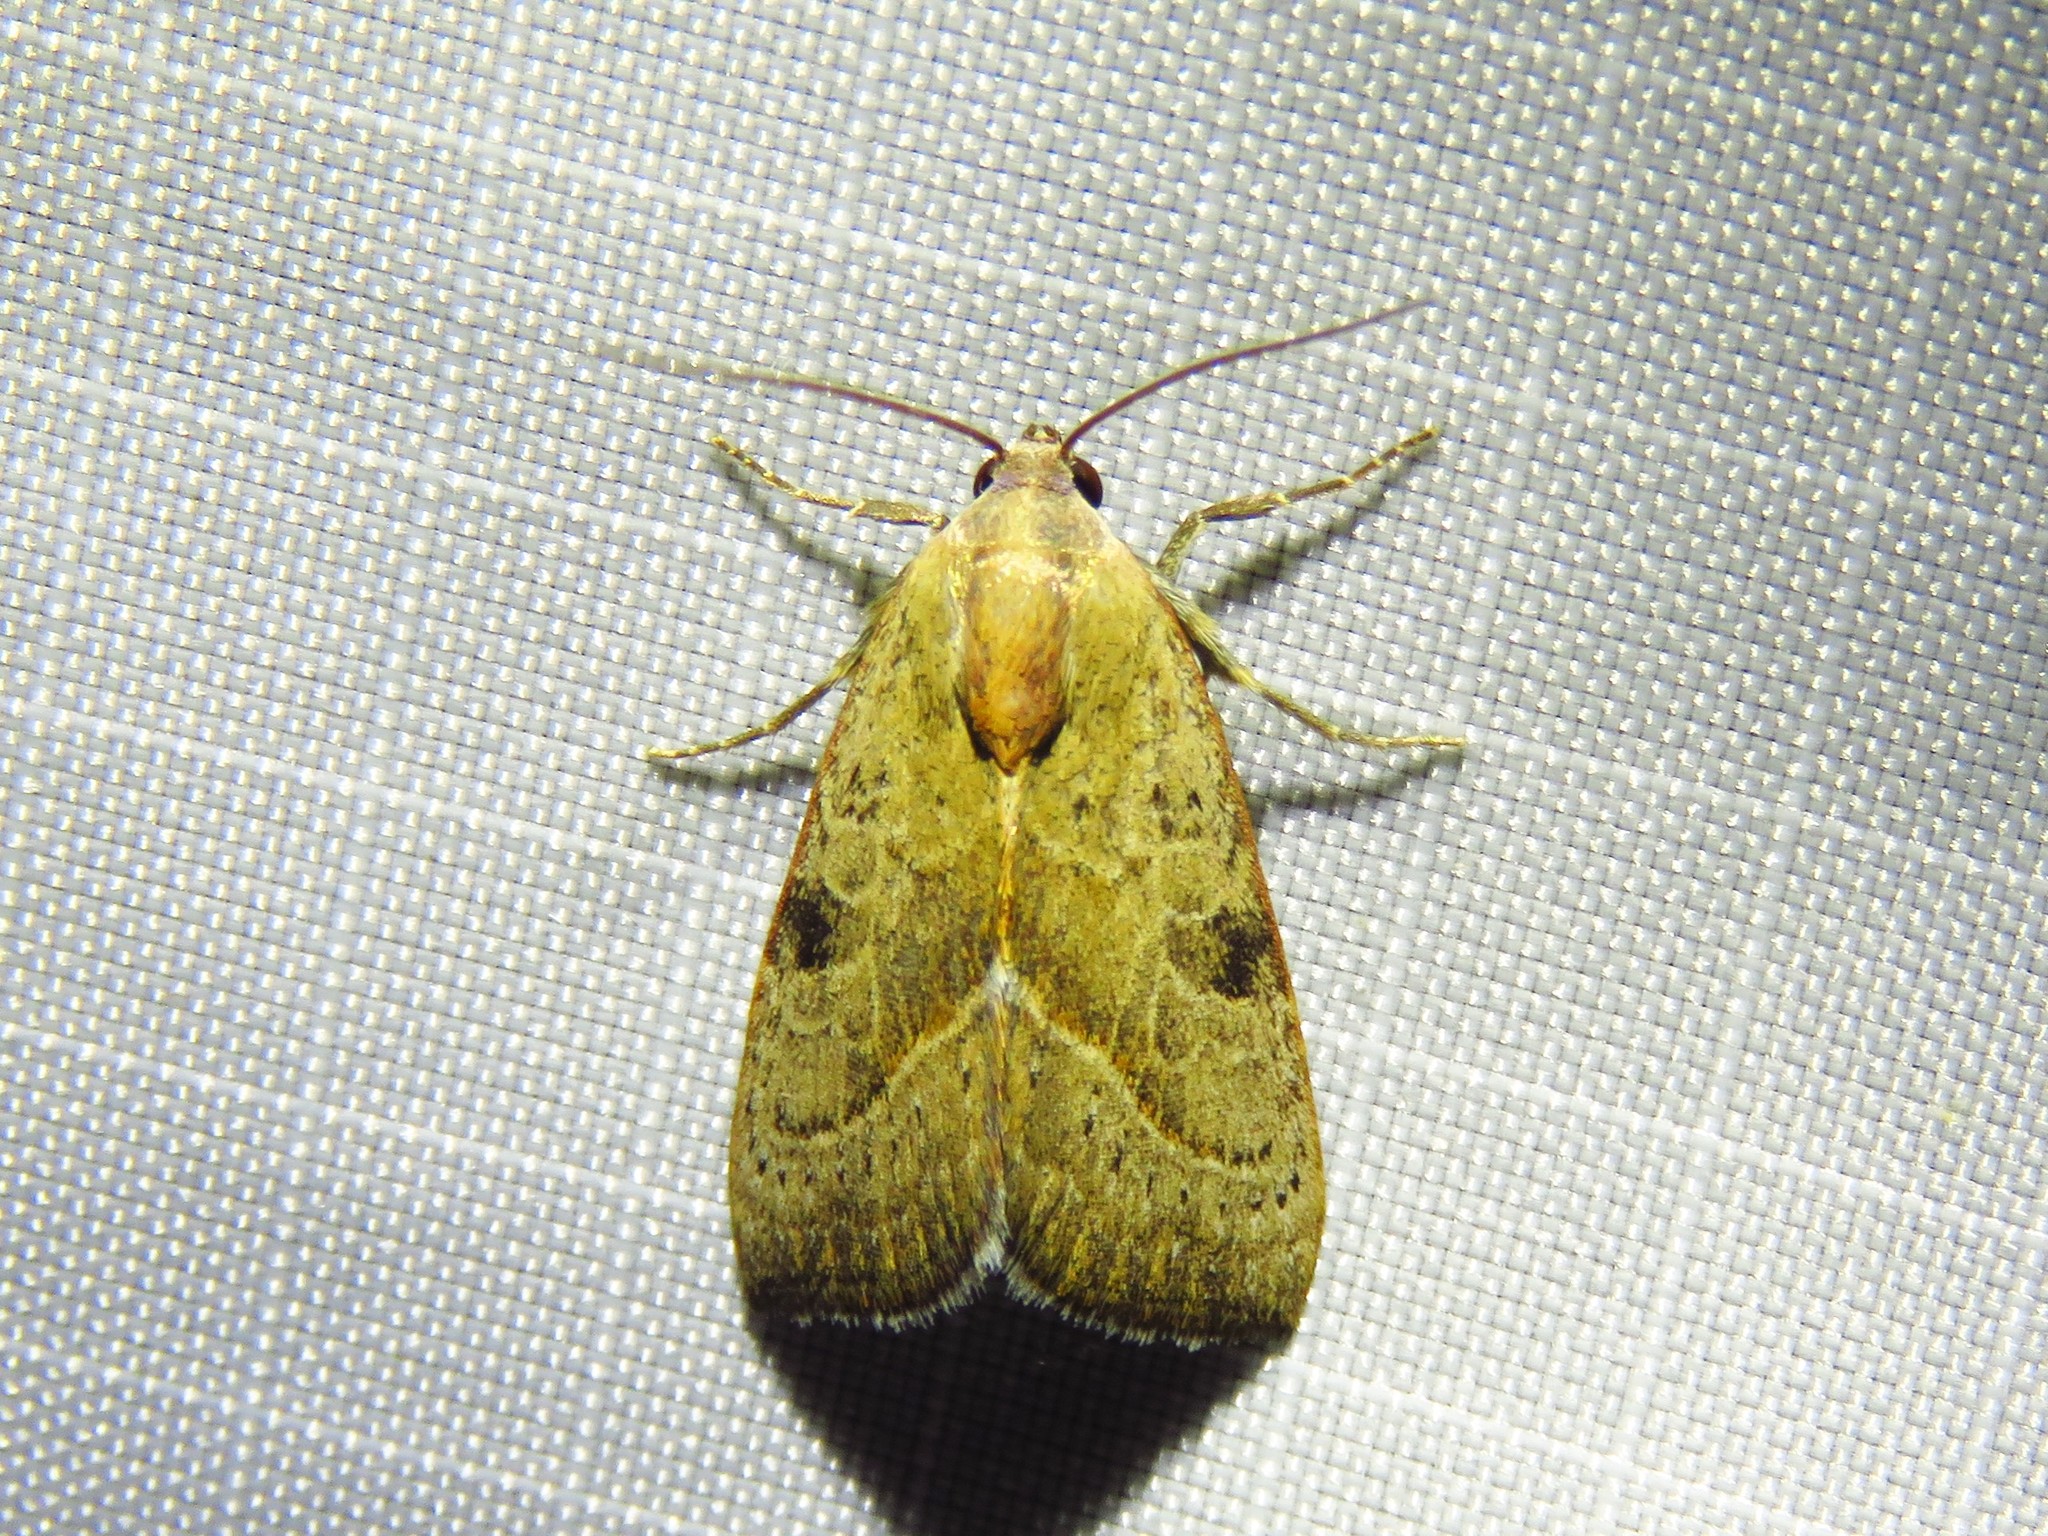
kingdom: Animalia
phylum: Arthropoda
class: Insecta
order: Lepidoptera
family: Noctuidae
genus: Galgula
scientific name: Galgula partita
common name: Wedgeling
